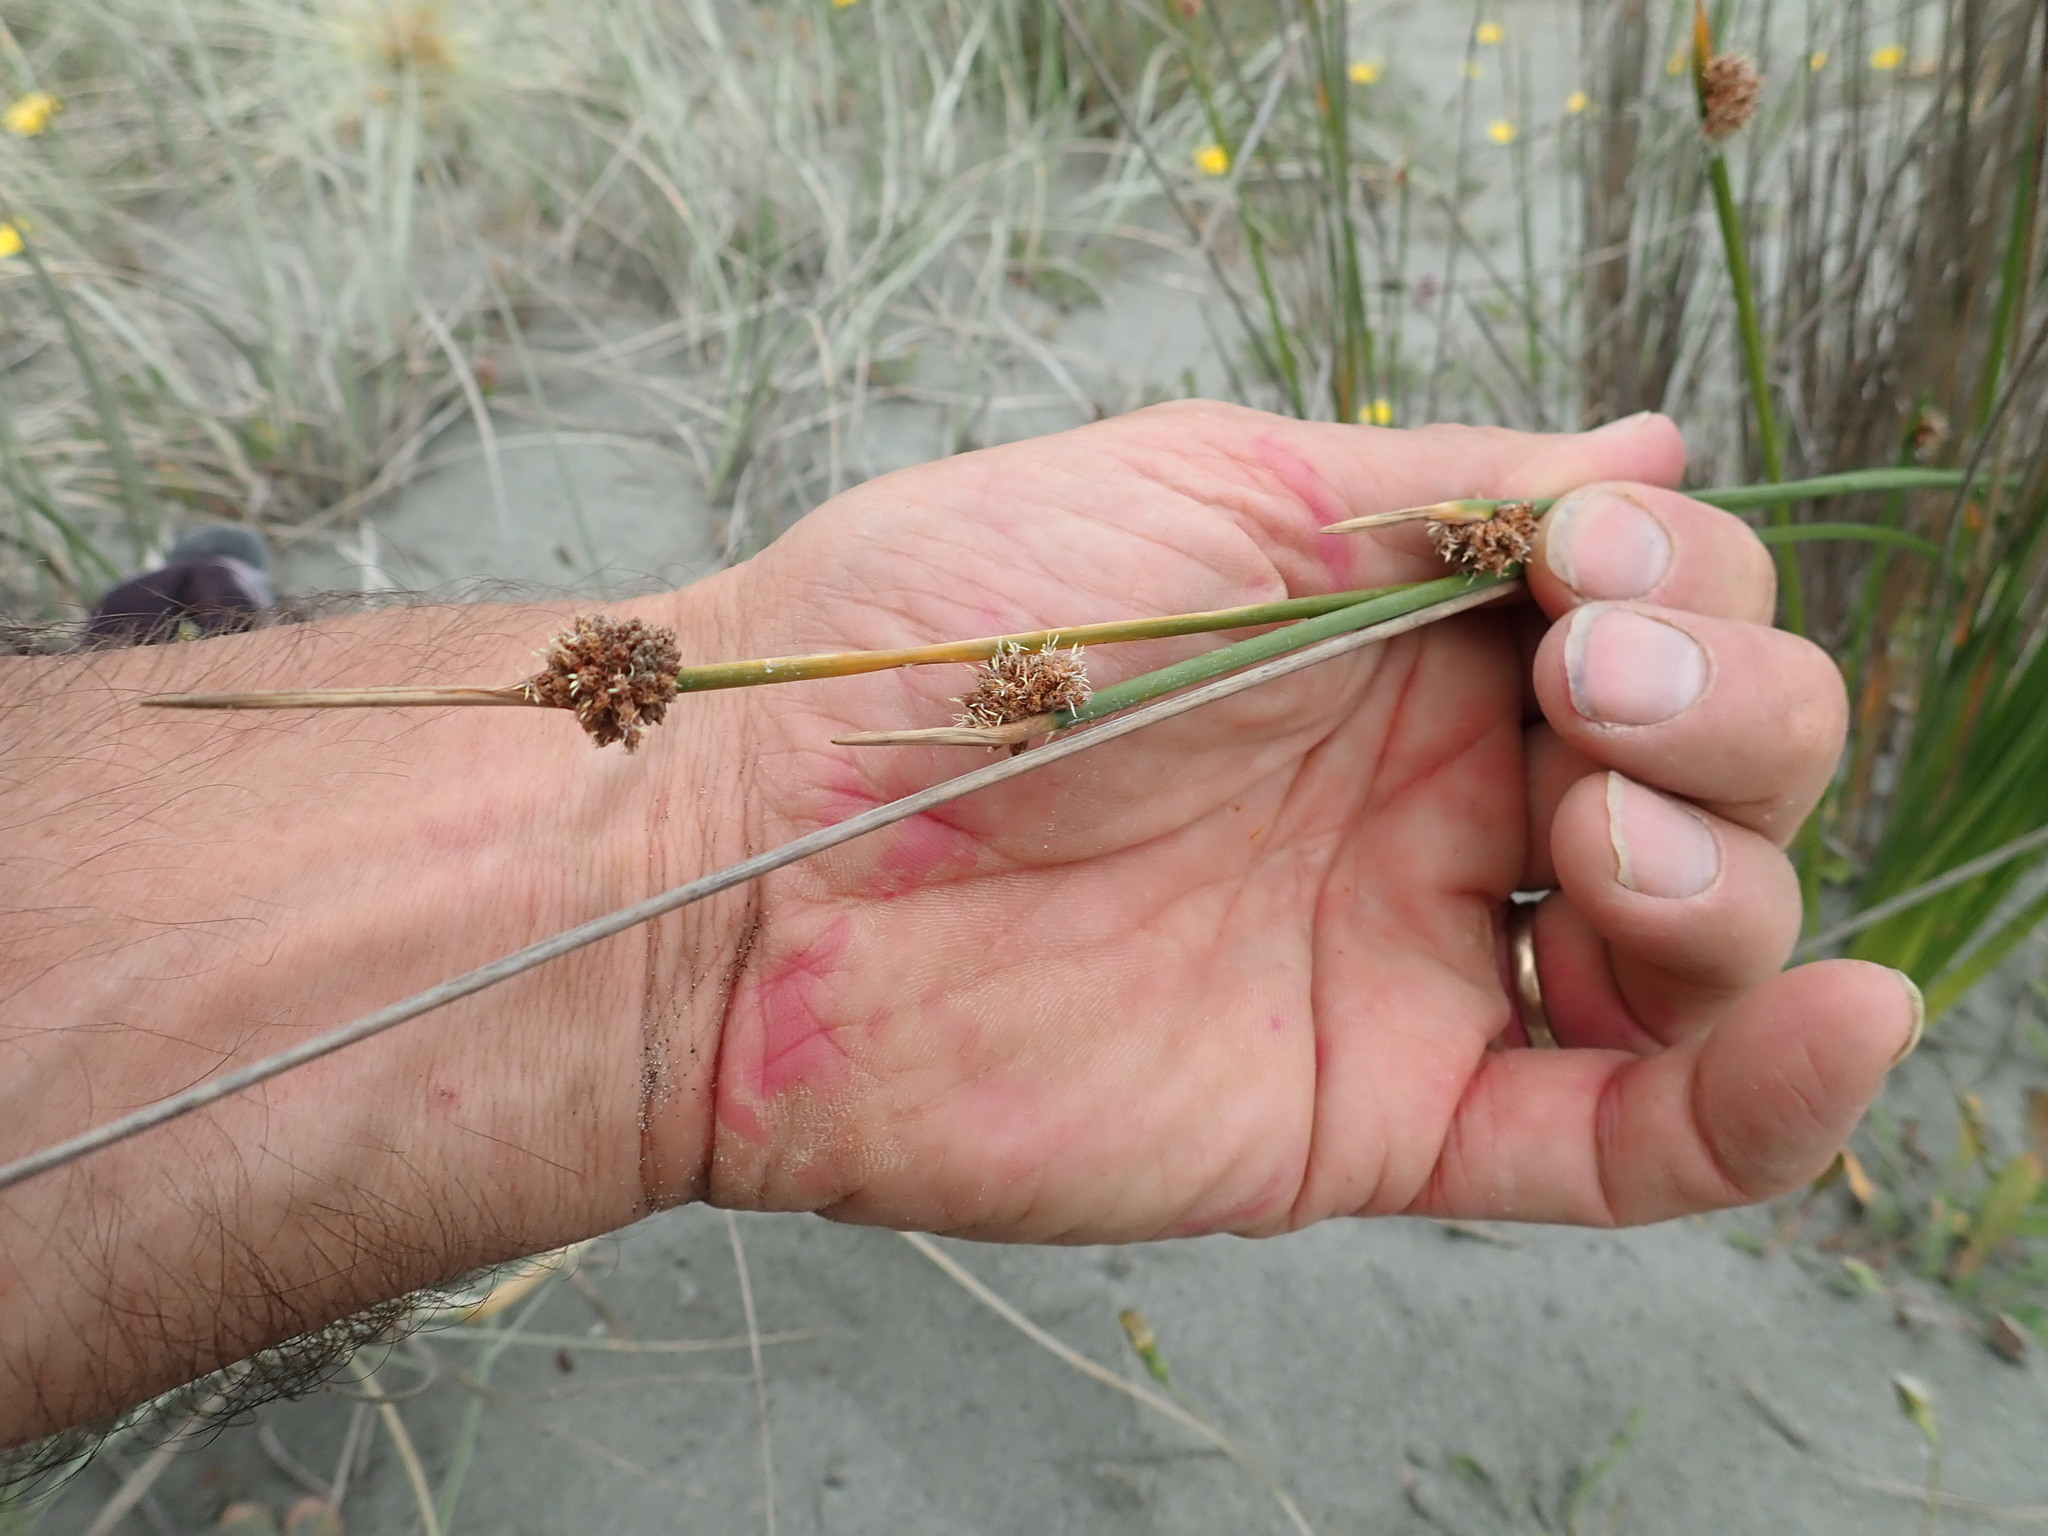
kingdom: Plantae
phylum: Tracheophyta
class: Liliopsida
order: Poales
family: Cyperaceae
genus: Ficinia
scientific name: Ficinia nodosa
